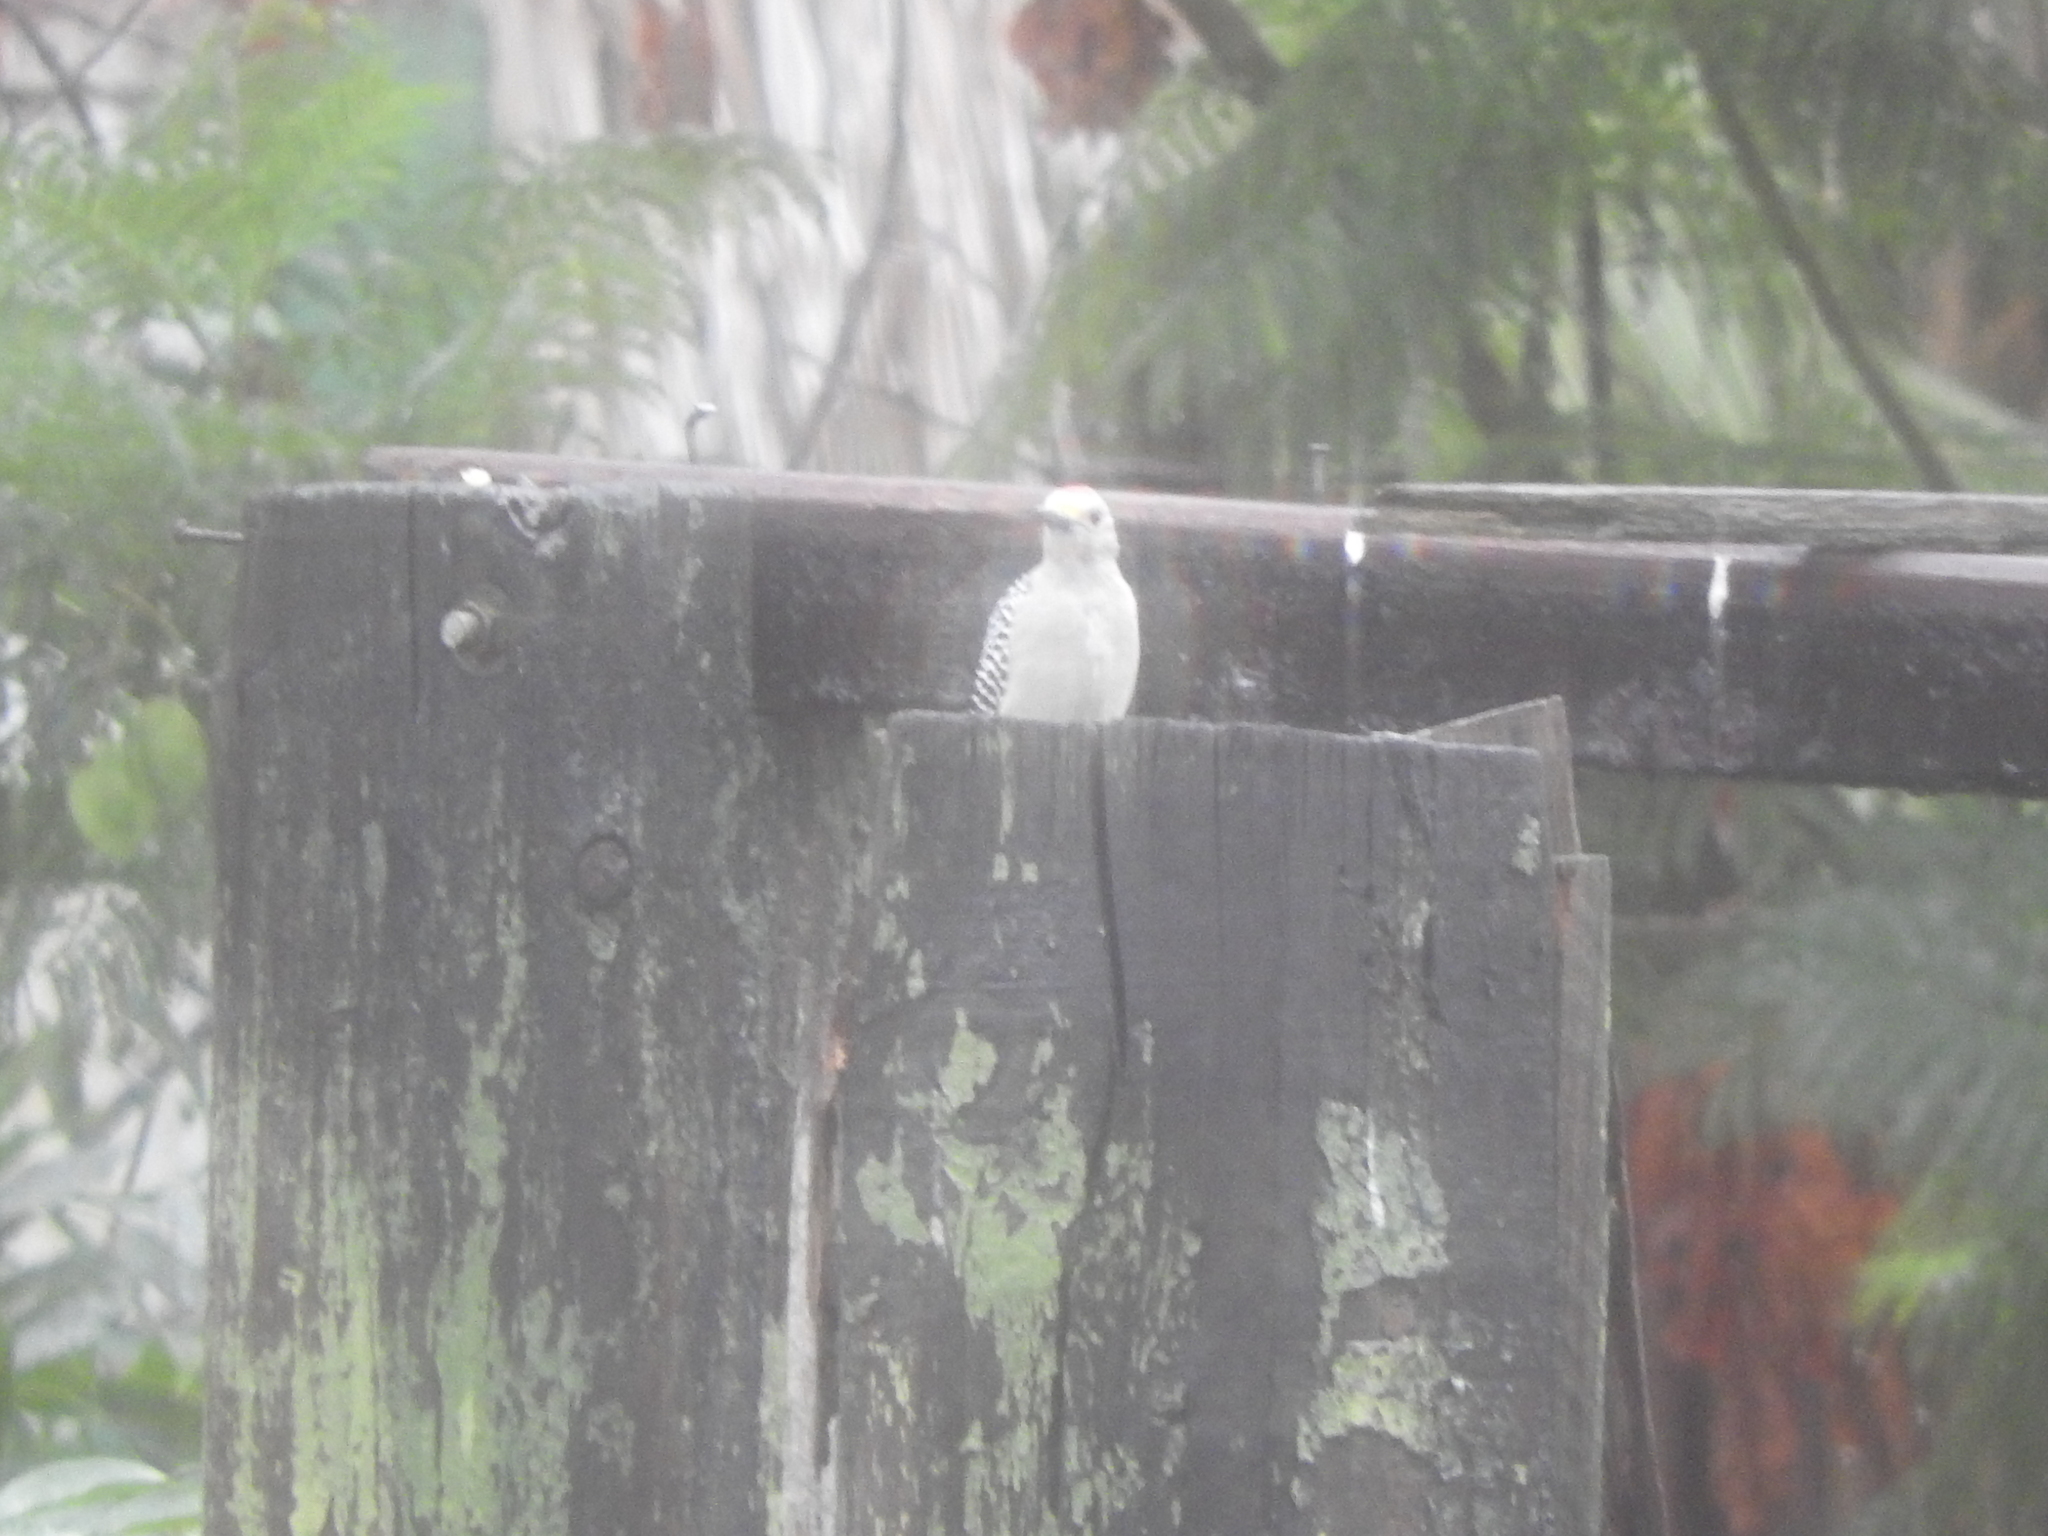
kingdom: Animalia
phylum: Chordata
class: Aves
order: Piciformes
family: Picidae
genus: Melanerpes
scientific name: Melanerpes aurifrons
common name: Golden-fronted woodpecker
